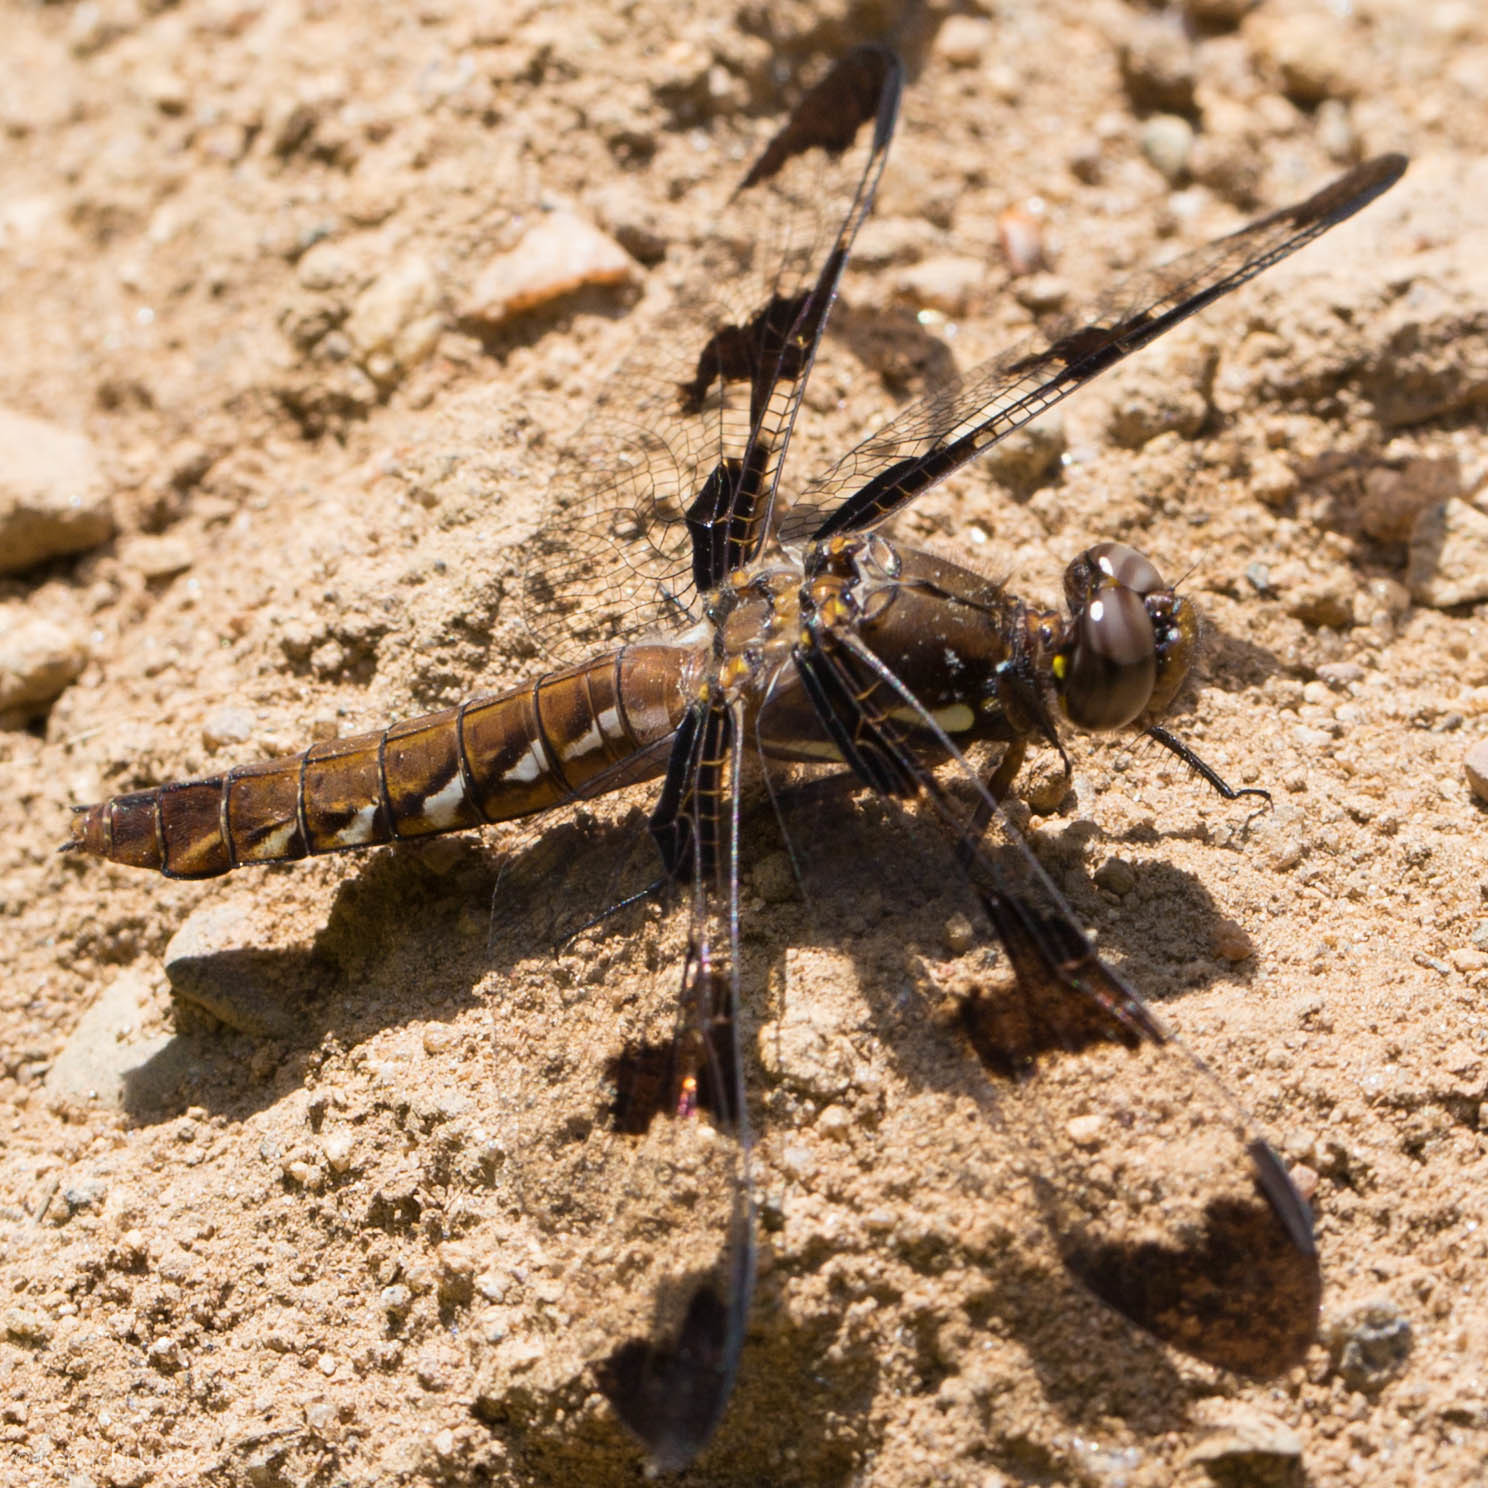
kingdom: Animalia
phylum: Arthropoda
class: Insecta
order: Odonata
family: Libellulidae
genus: Plathemis
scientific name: Plathemis lydia
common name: Common whitetail
